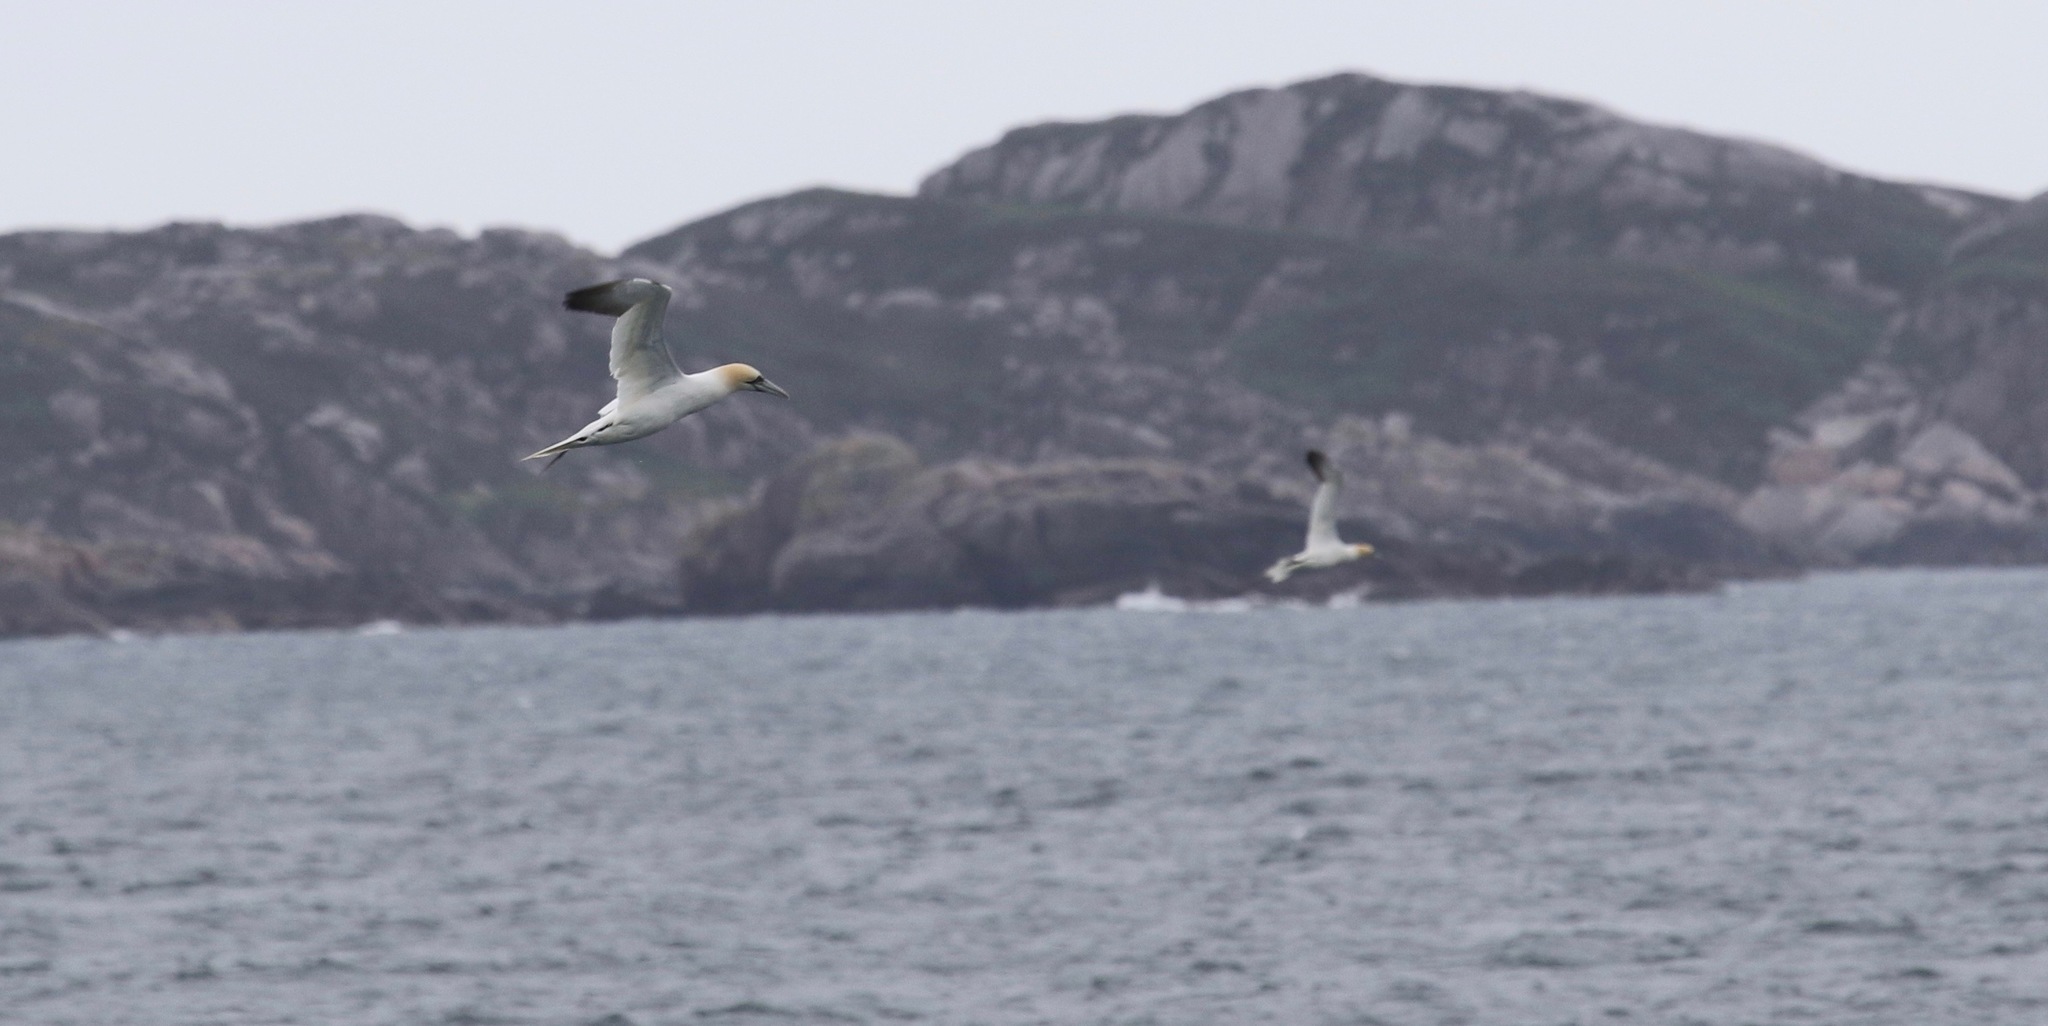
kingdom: Animalia
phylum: Chordata
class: Aves
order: Suliformes
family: Sulidae
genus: Morus
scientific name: Morus bassanus
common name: Northern gannet
